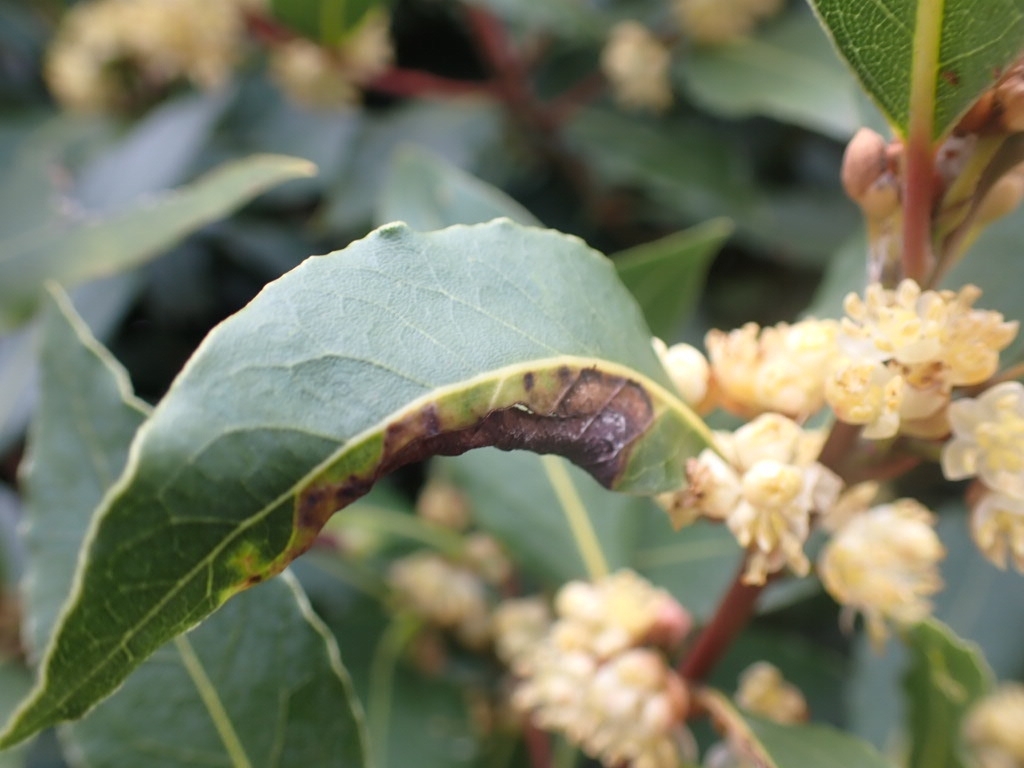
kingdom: Animalia
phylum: Arthropoda
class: Insecta
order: Hemiptera
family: Triozidae
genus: Lauritrioza
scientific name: Lauritrioza alacris
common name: Laurel psyllid
